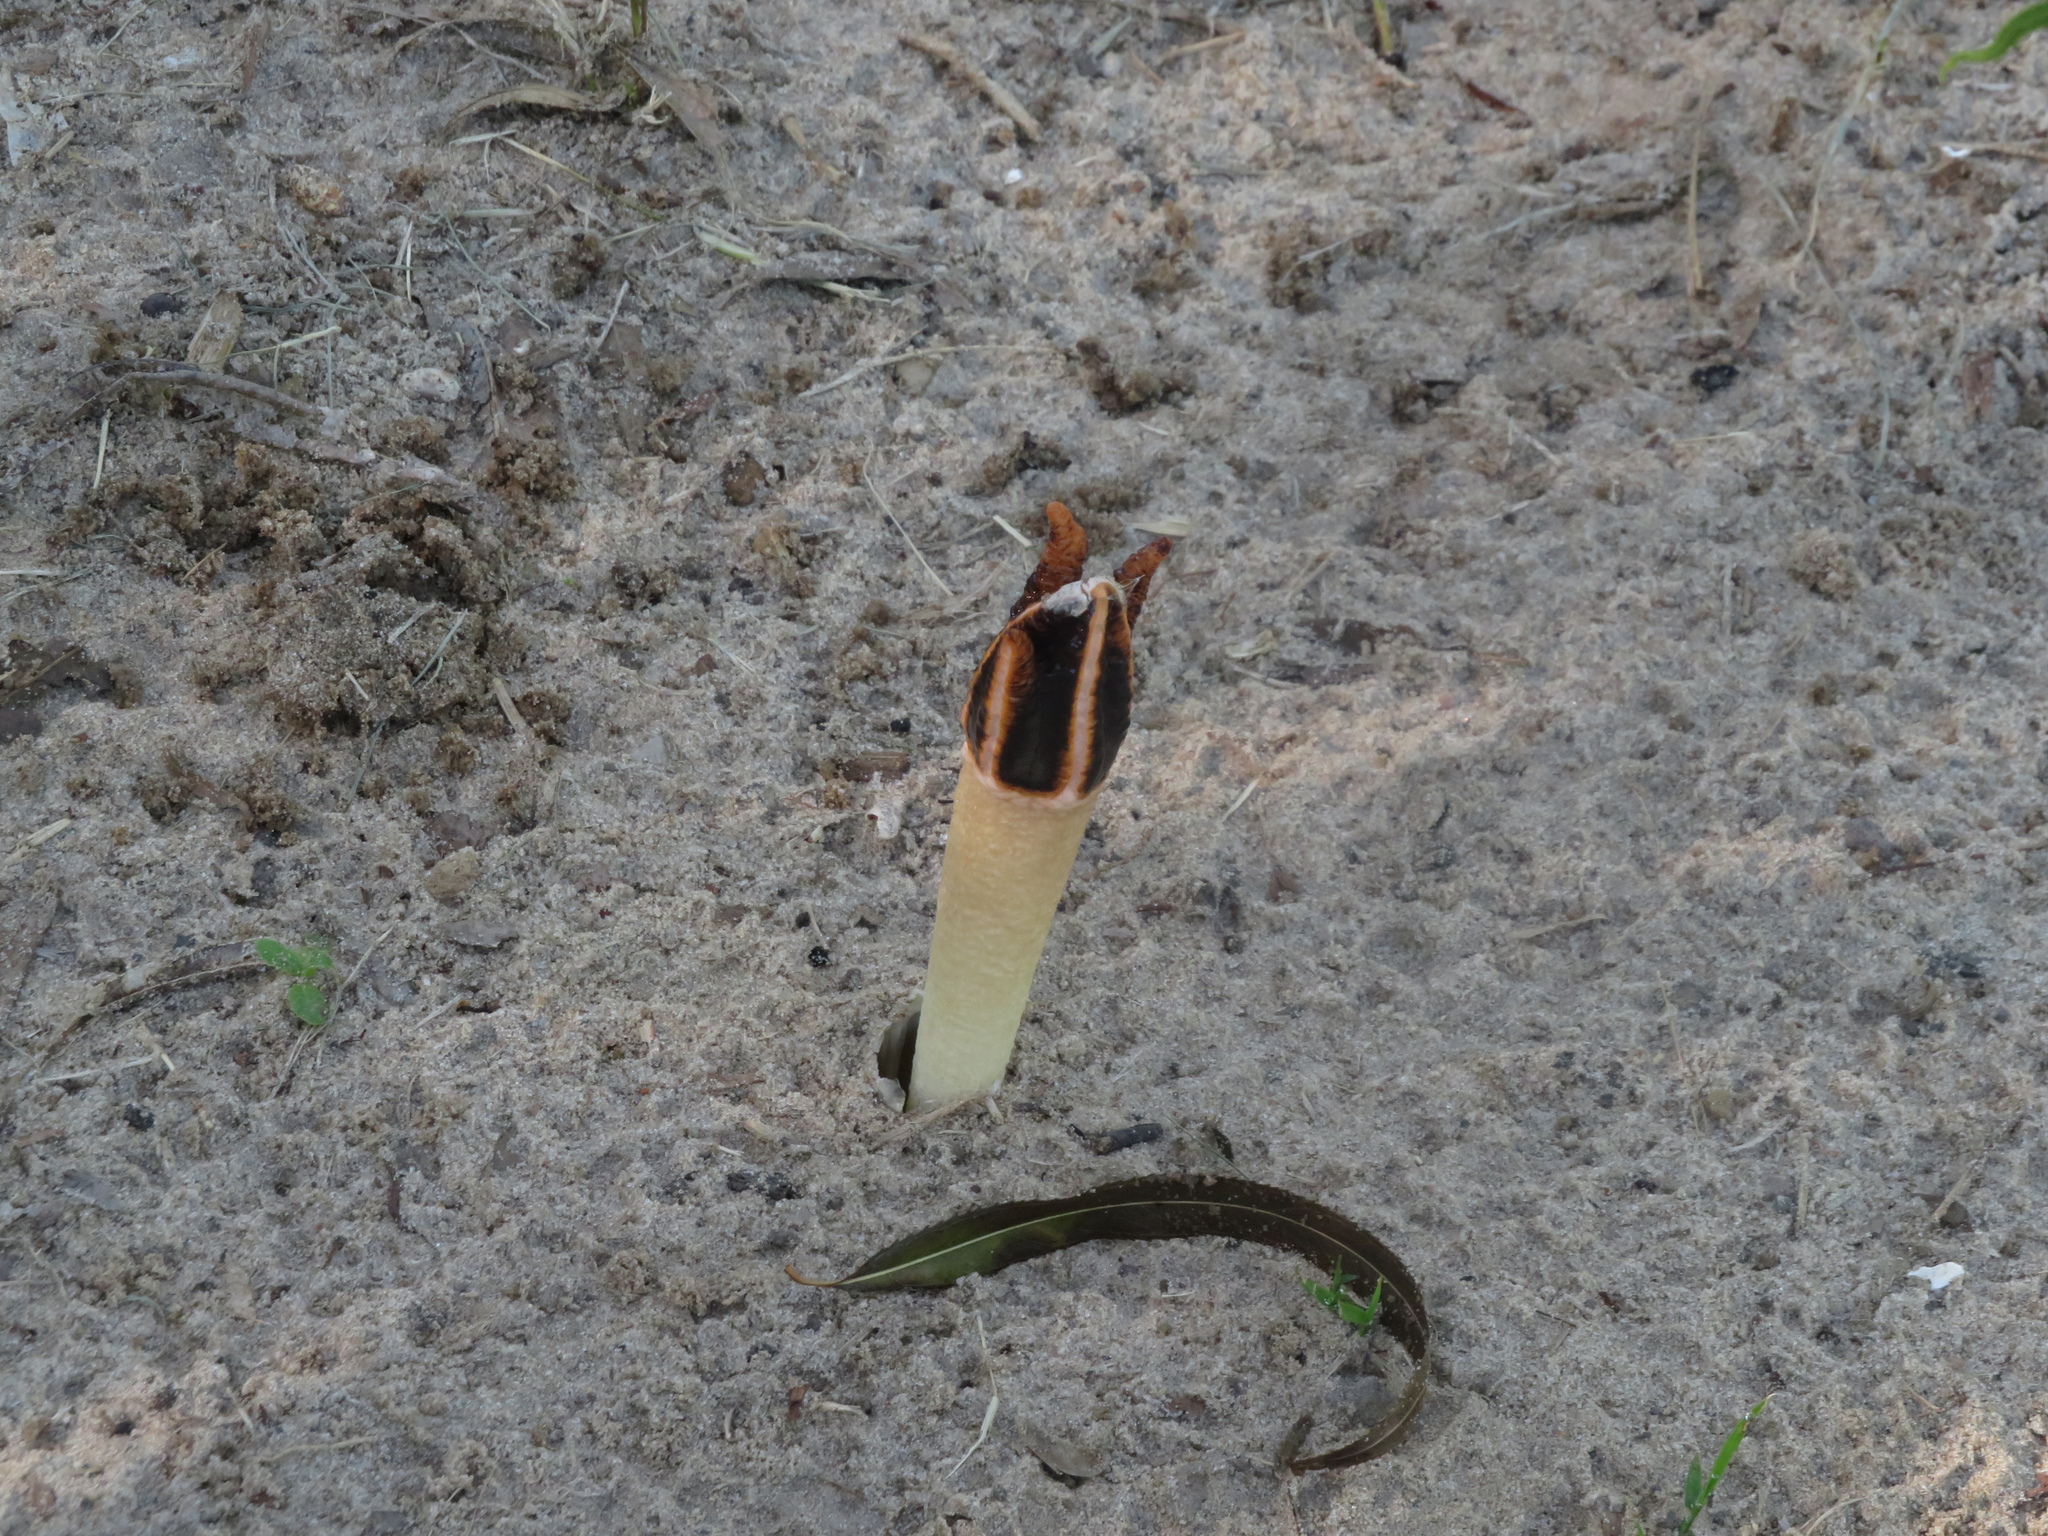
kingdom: Fungi
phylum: Basidiomycota
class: Agaricomycetes
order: Phallales
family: Phallaceae
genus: Lysurus
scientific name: Lysurus cruciatus
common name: Lizard's claw
